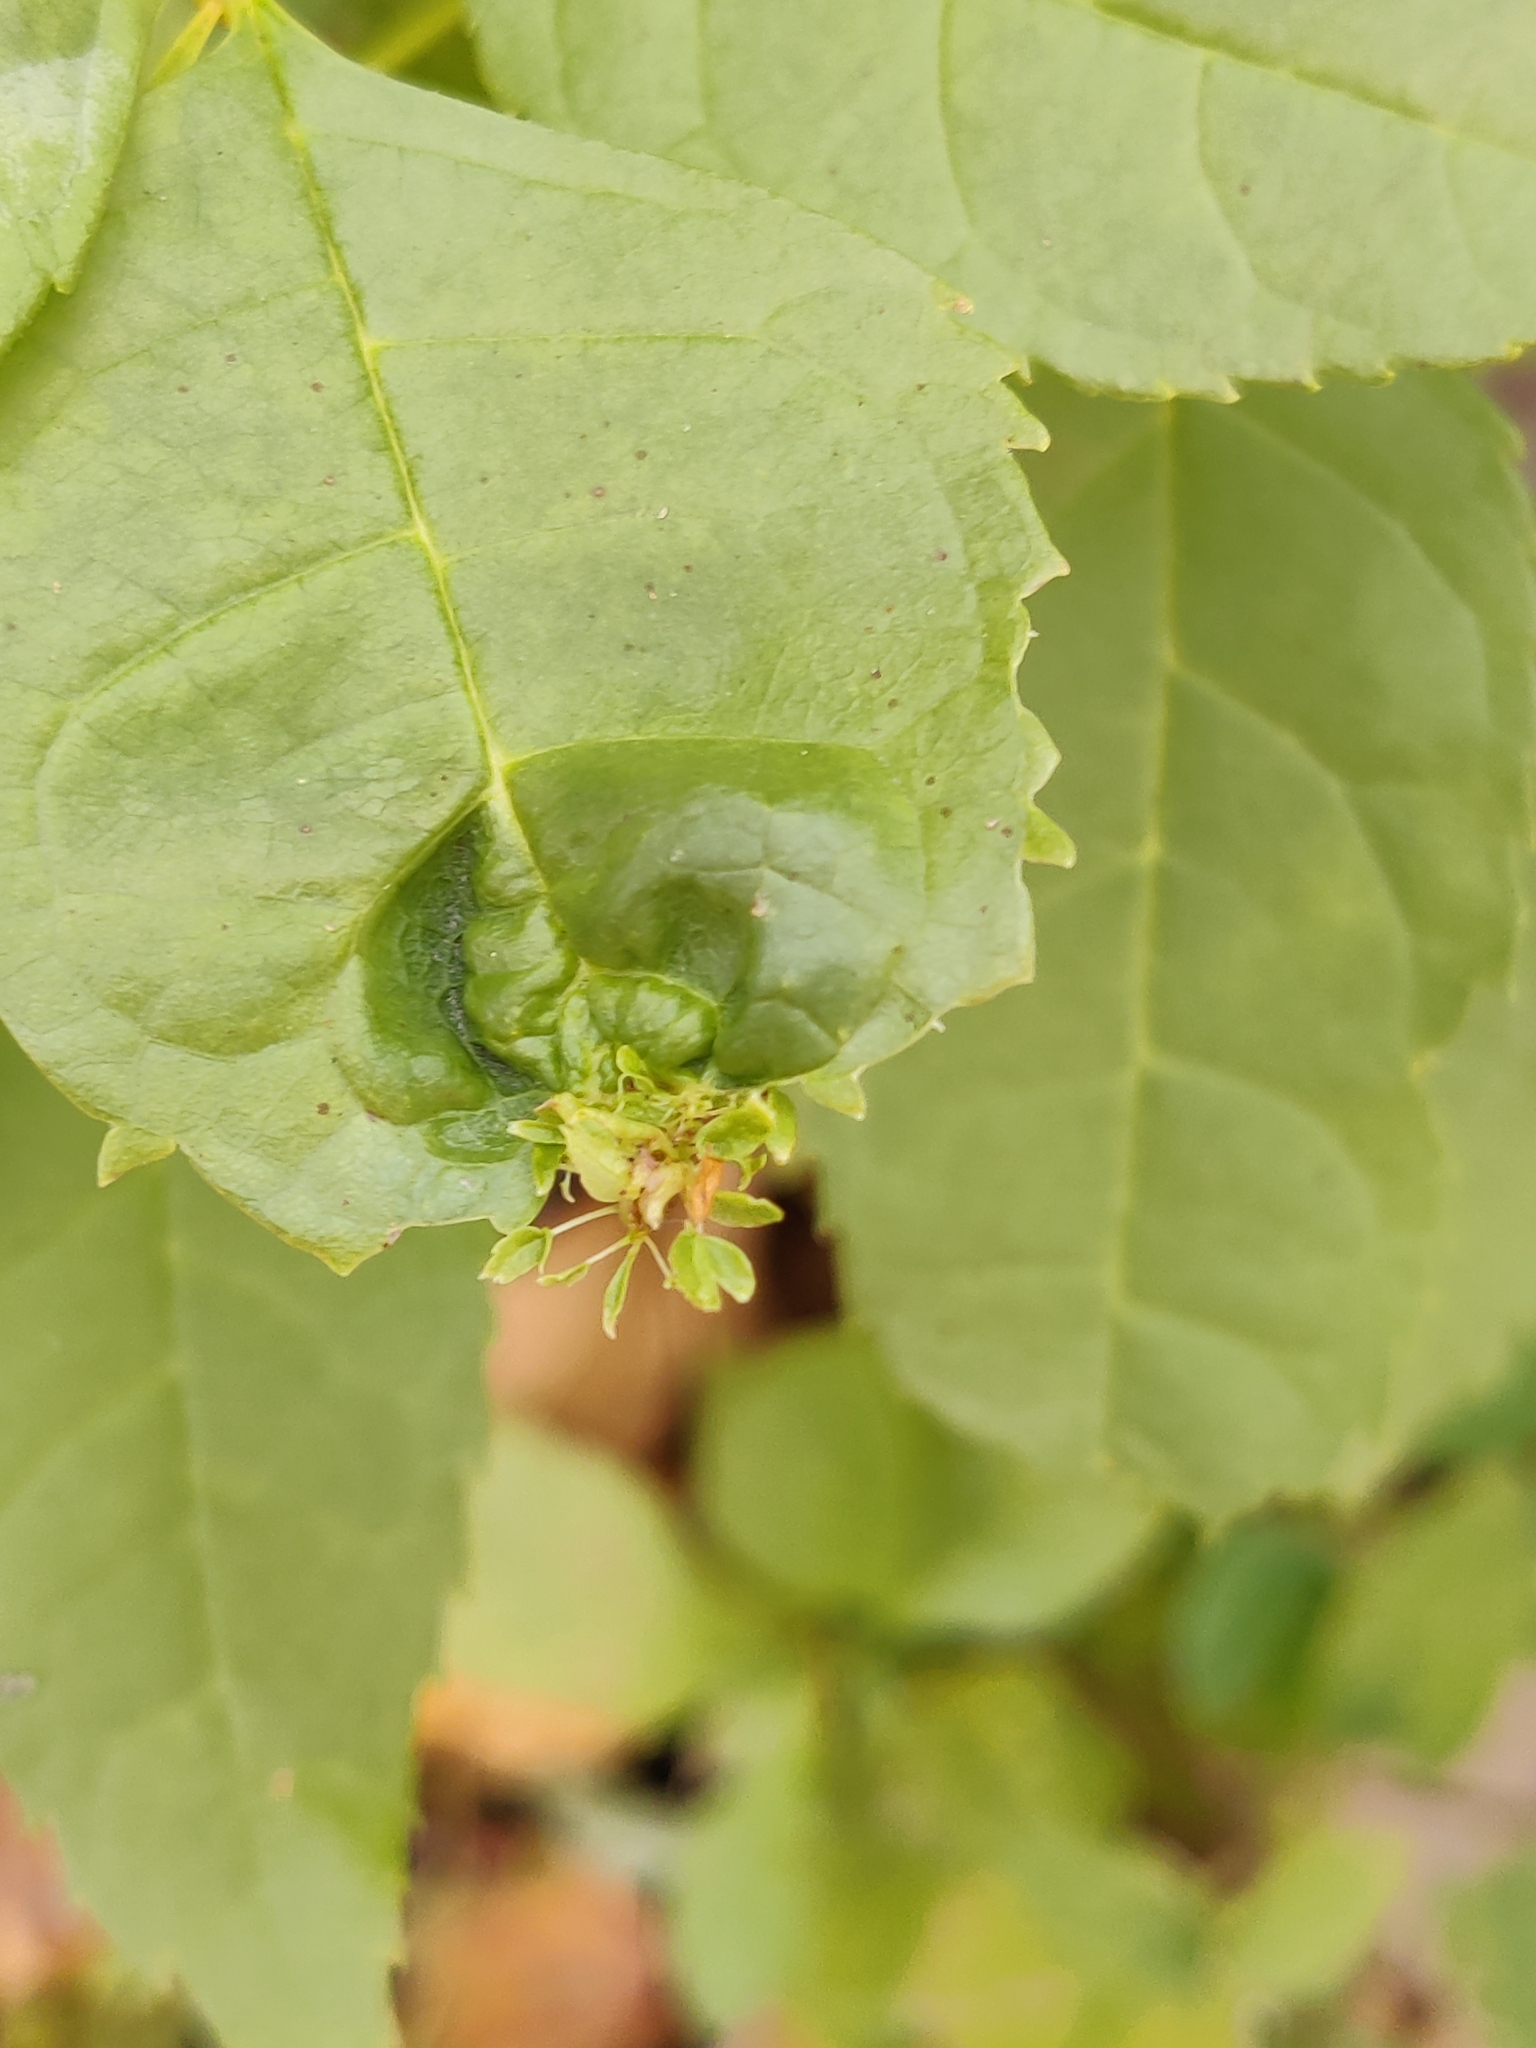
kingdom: Bacteria
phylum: Firmicutes
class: Bacilli
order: Acholeplasmatales
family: Acholeplasmataceae
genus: Phytoplasma
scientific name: Phytoplasma
